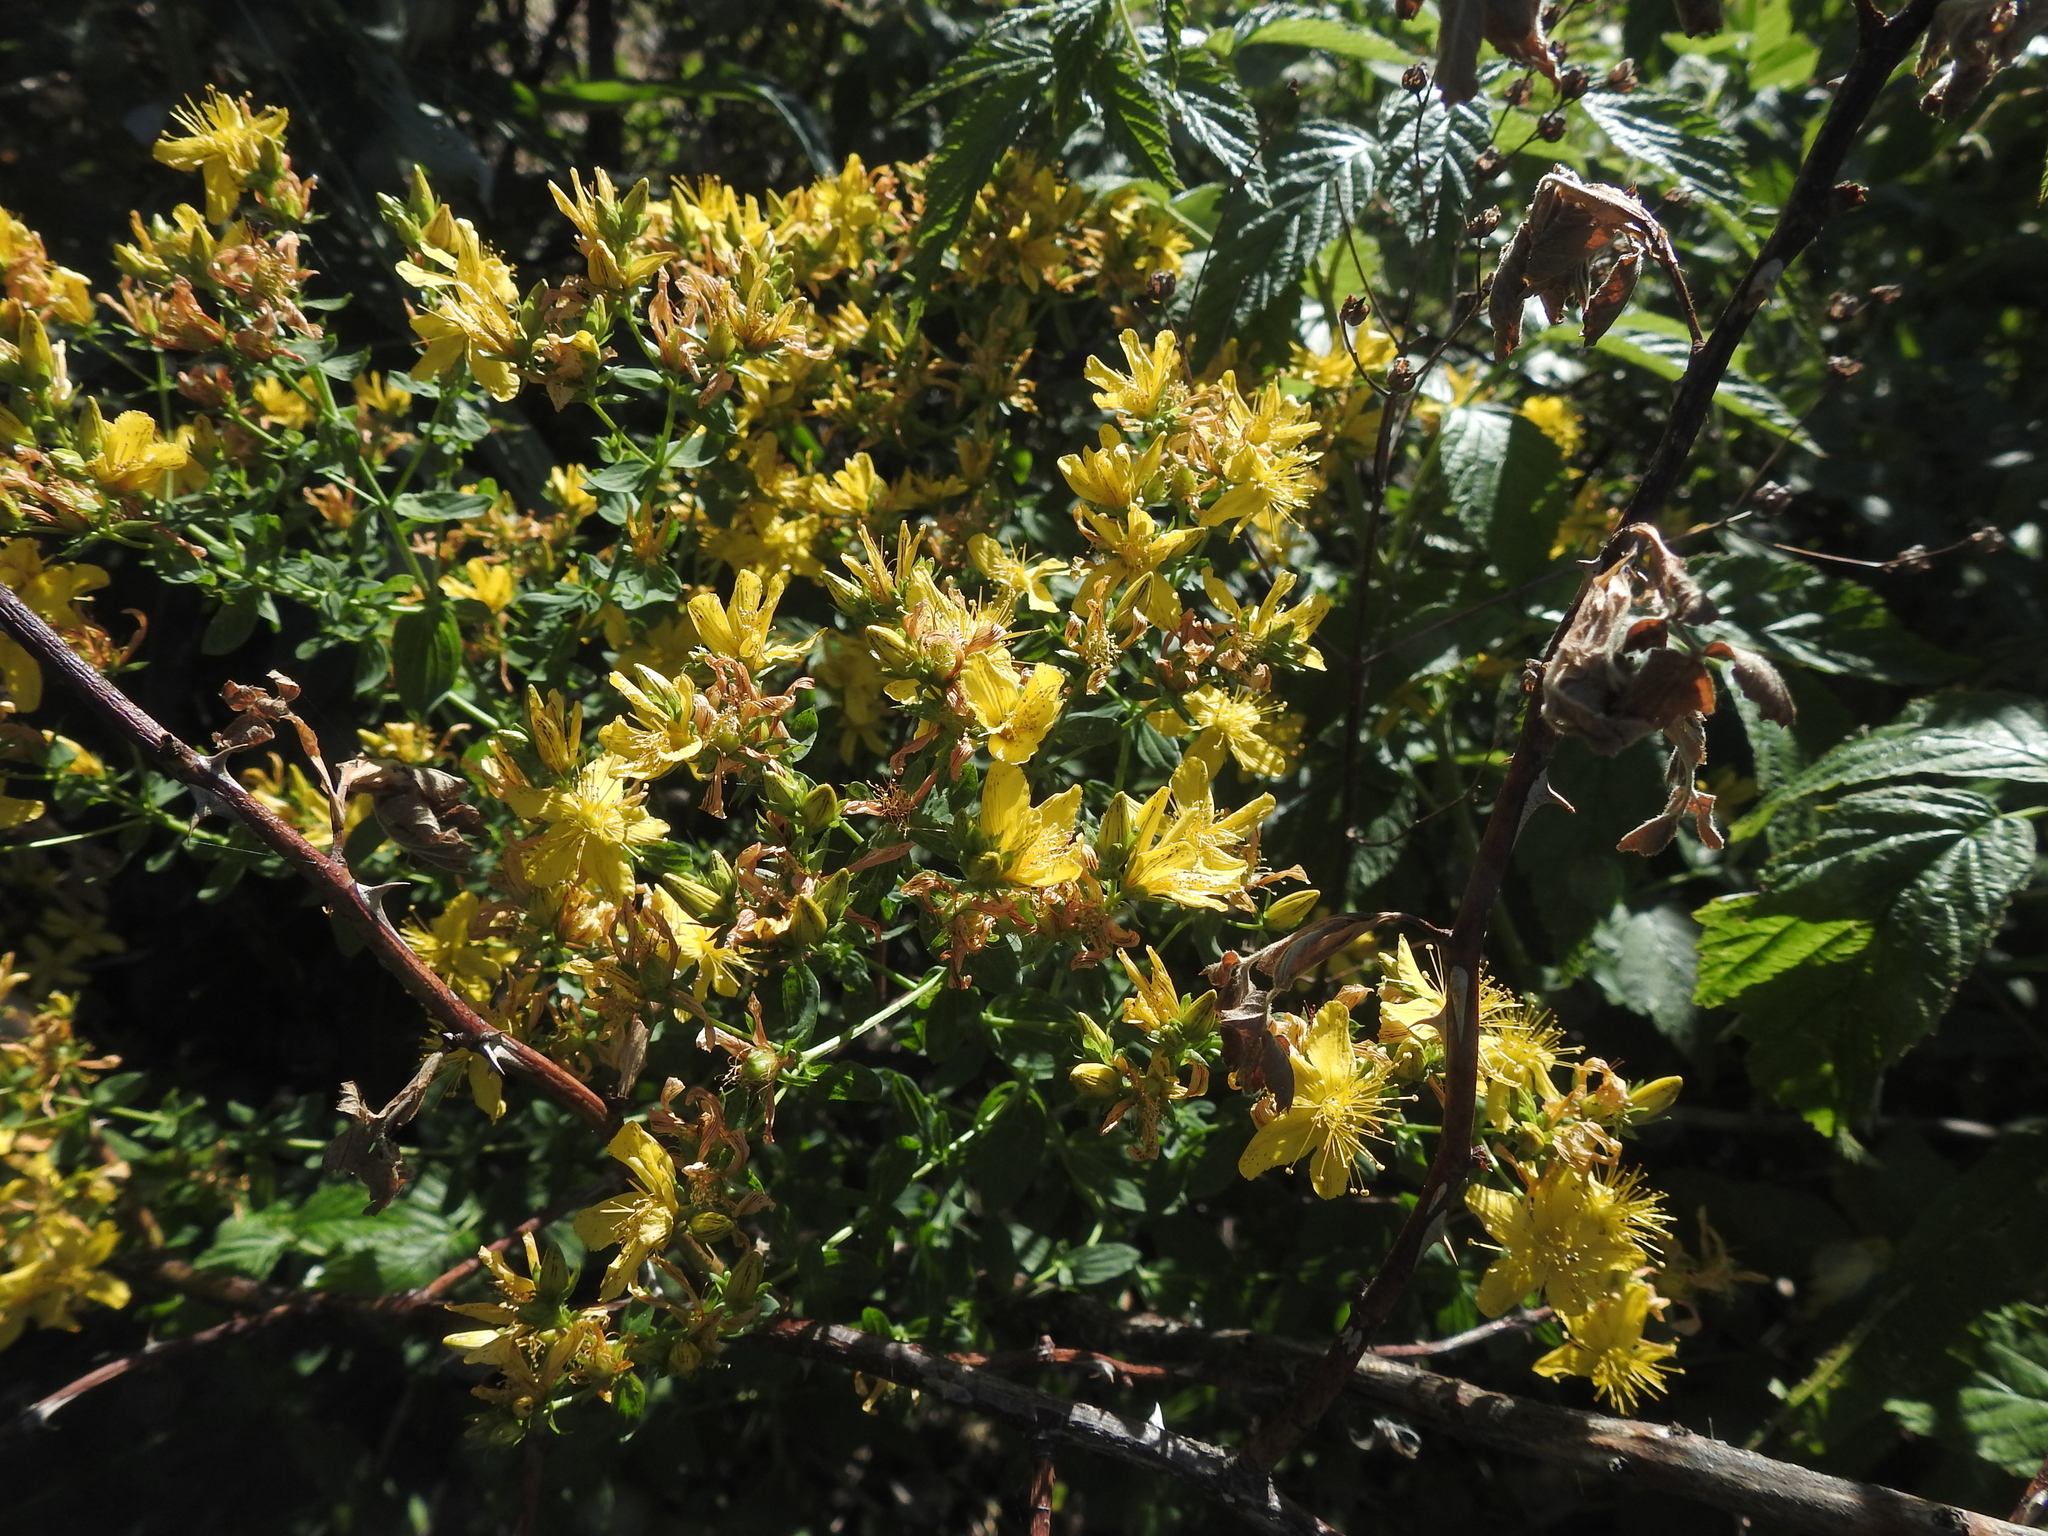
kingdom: Plantae
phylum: Tracheophyta
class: Magnoliopsida
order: Malpighiales
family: Hypericaceae
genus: Hypericum
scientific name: Hypericum perforatum
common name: Common st. johnswort
